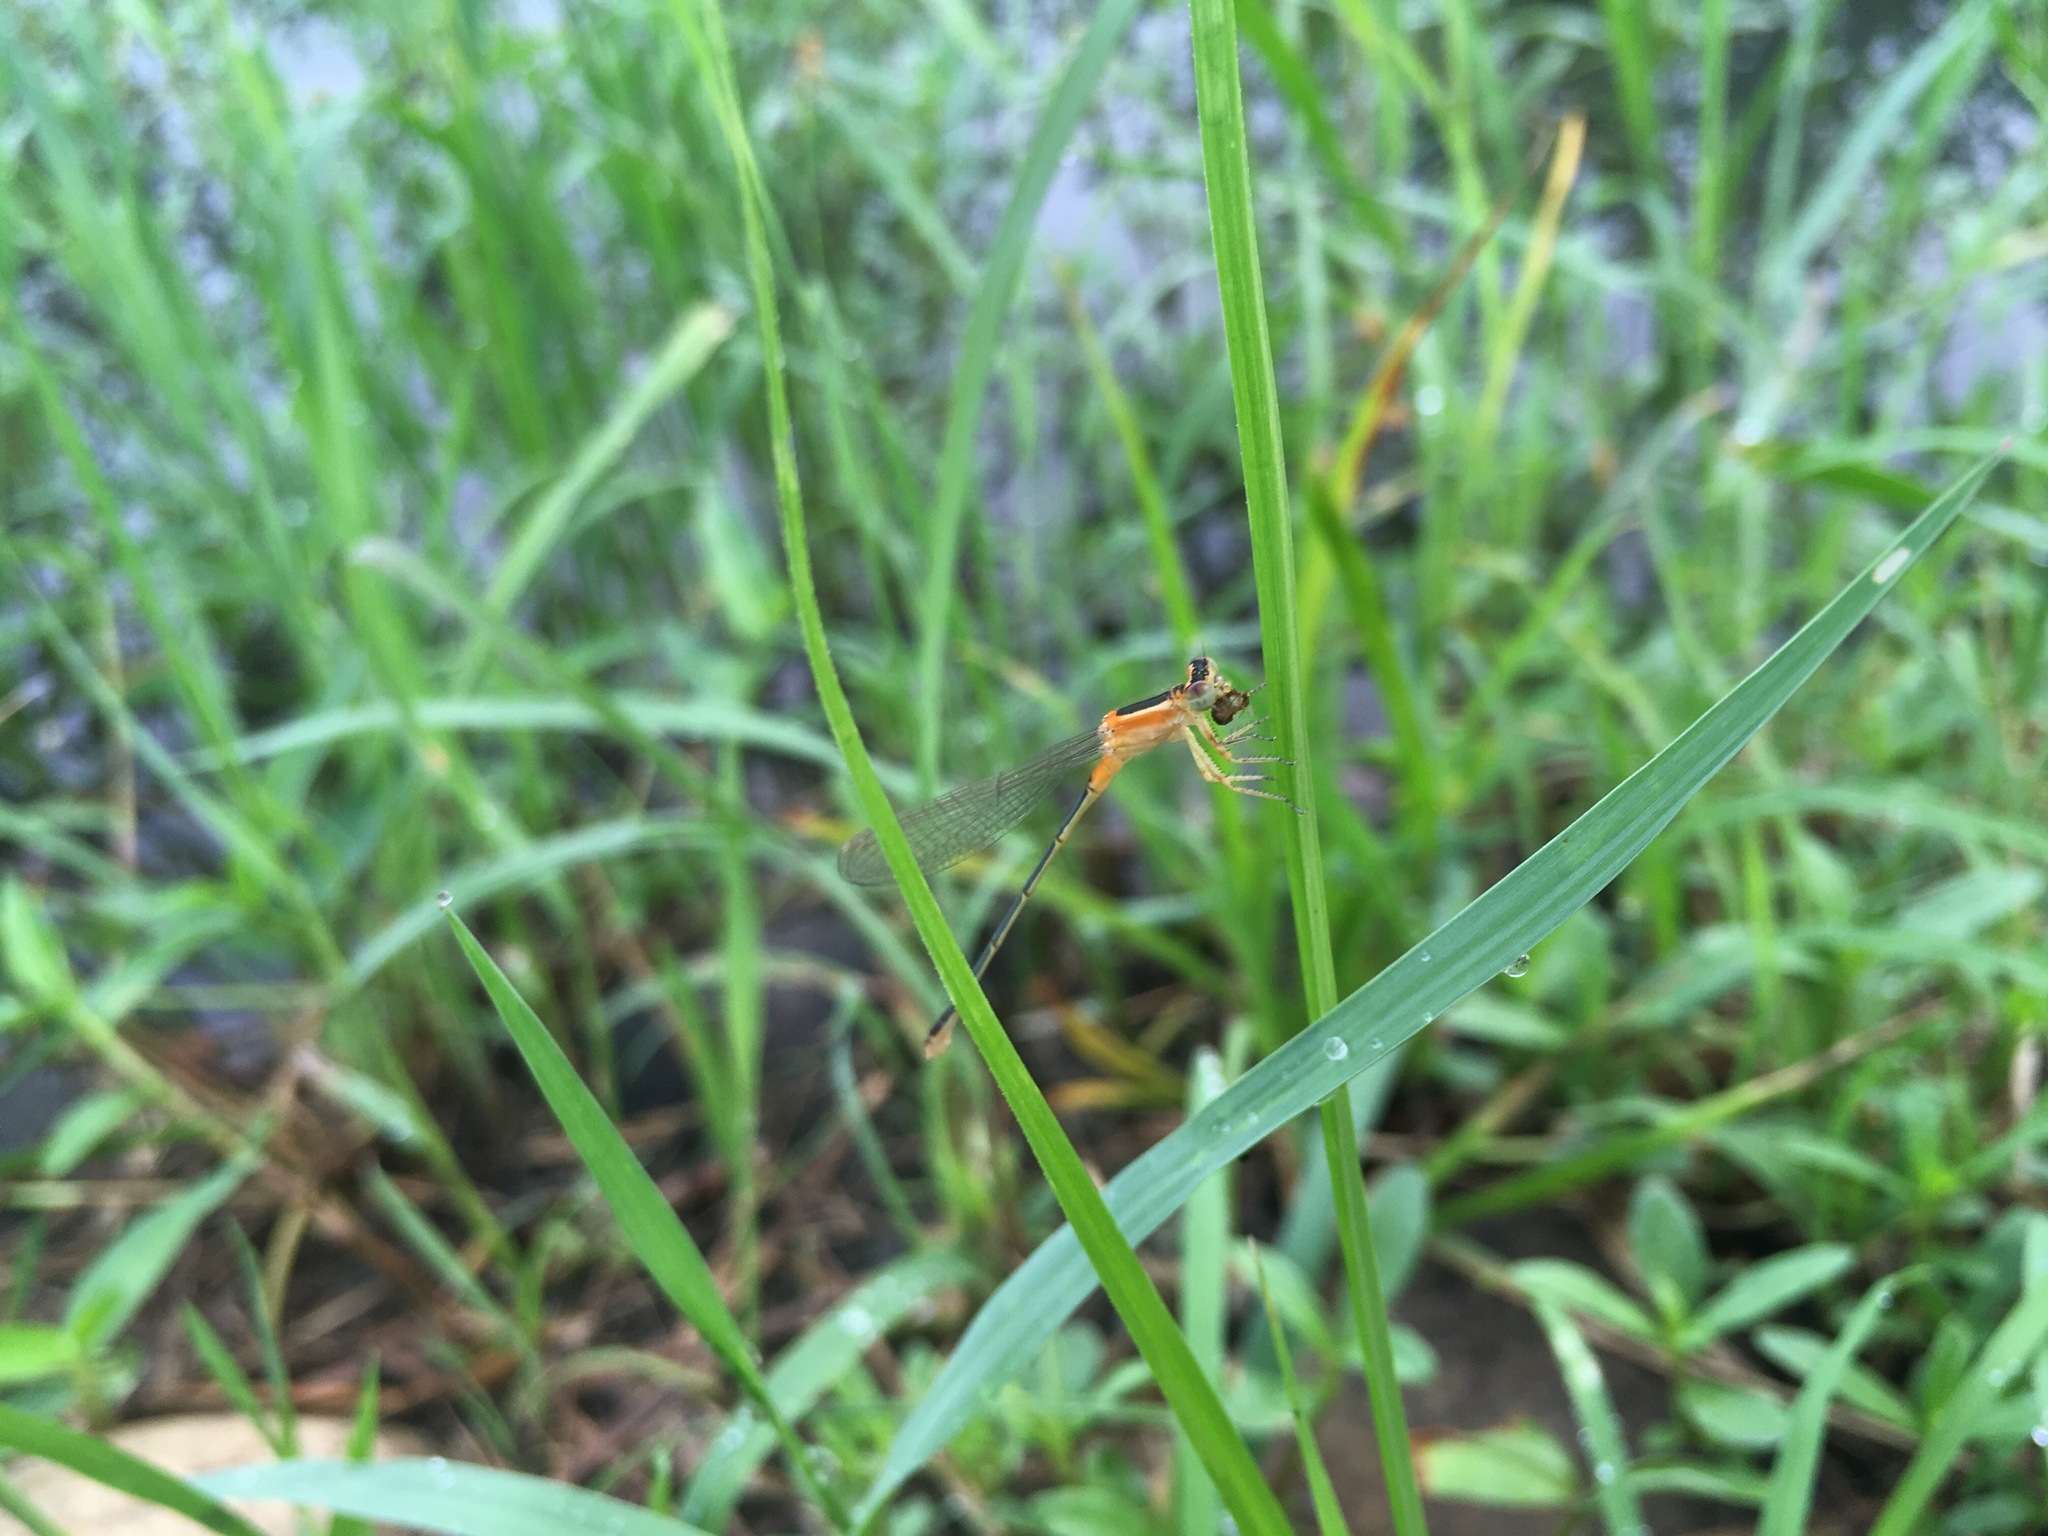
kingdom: Animalia
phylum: Arthropoda
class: Insecta
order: Odonata
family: Coenagrionidae
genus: Ischnura
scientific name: Ischnura senegalensis
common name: Tropical bluetail
